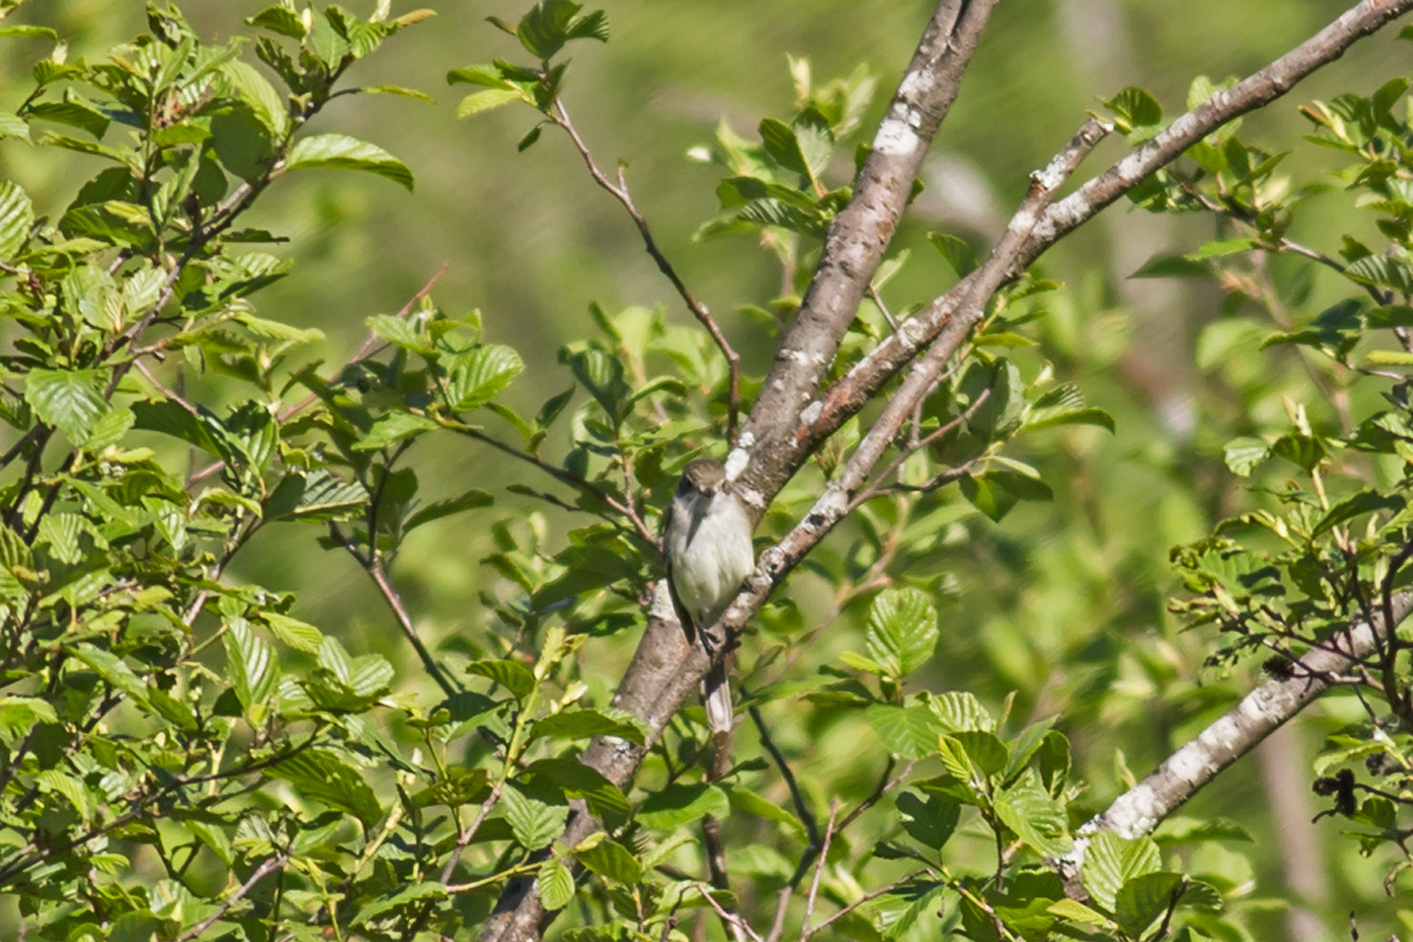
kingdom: Animalia
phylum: Chordata
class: Aves
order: Passeriformes
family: Tyrannidae
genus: Empidonax
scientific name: Empidonax alnorum
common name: Alder flycatcher
